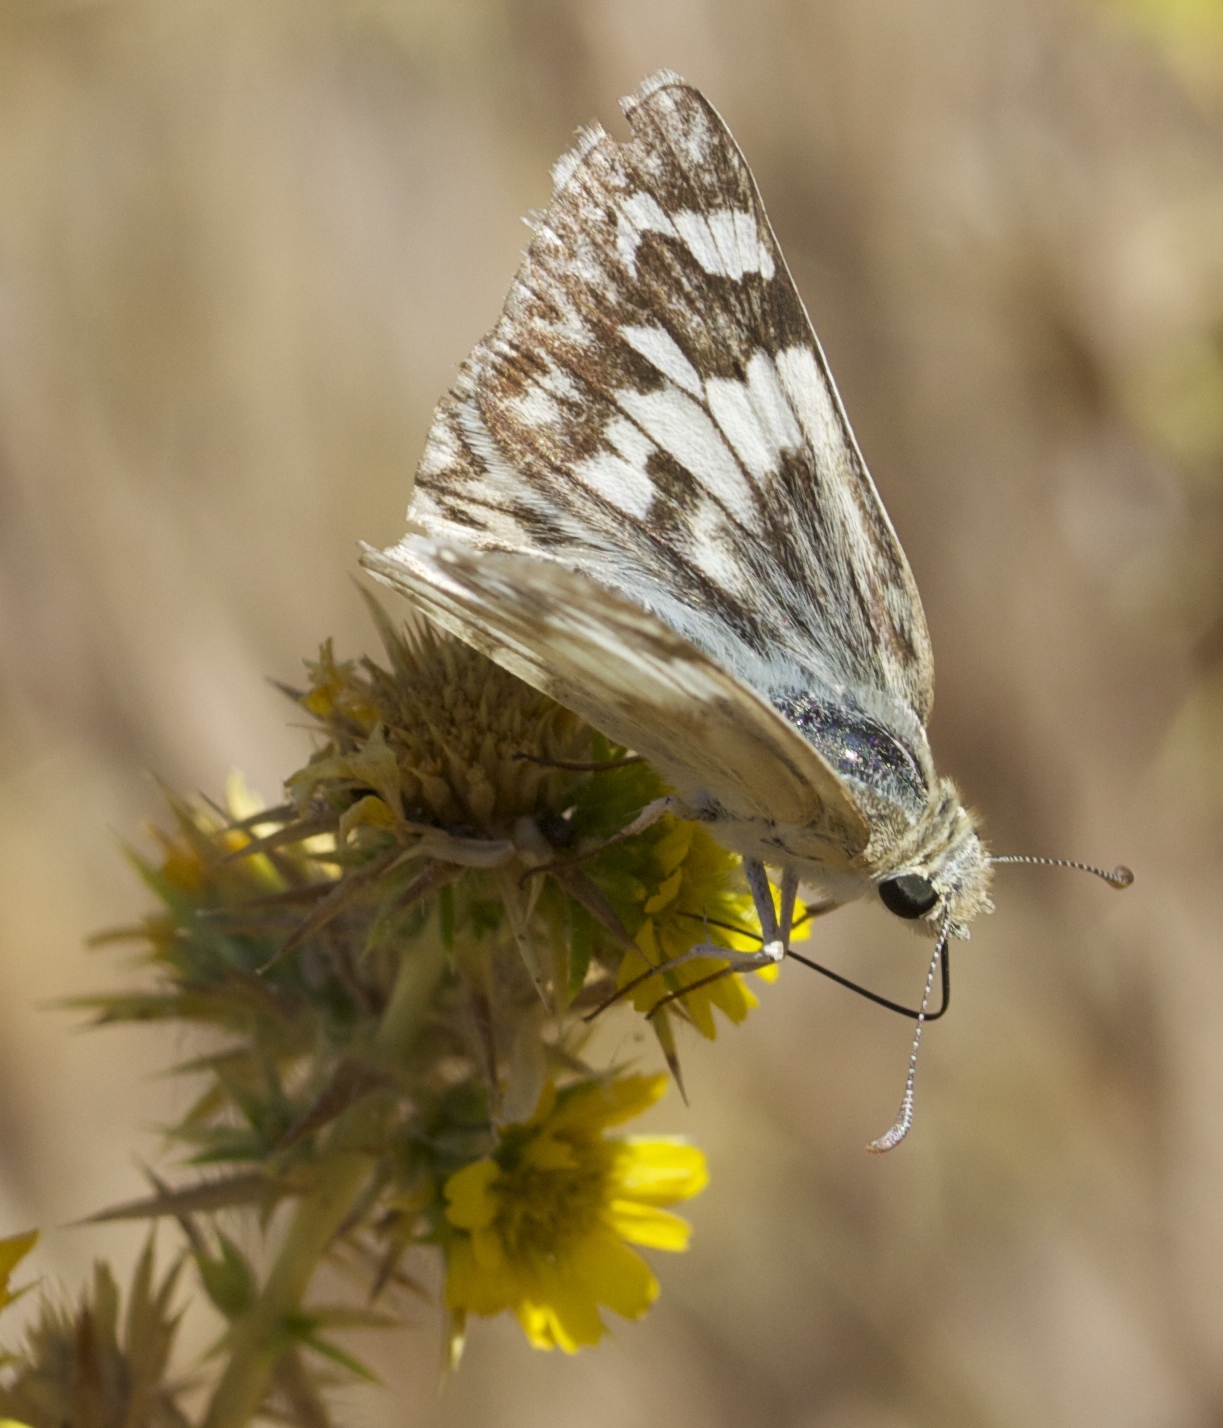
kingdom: Animalia
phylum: Arthropoda
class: Insecta
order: Lepidoptera
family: Hesperiidae
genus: Heliopetes
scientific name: Heliopetes ericetorum
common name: Northern white-skipper
